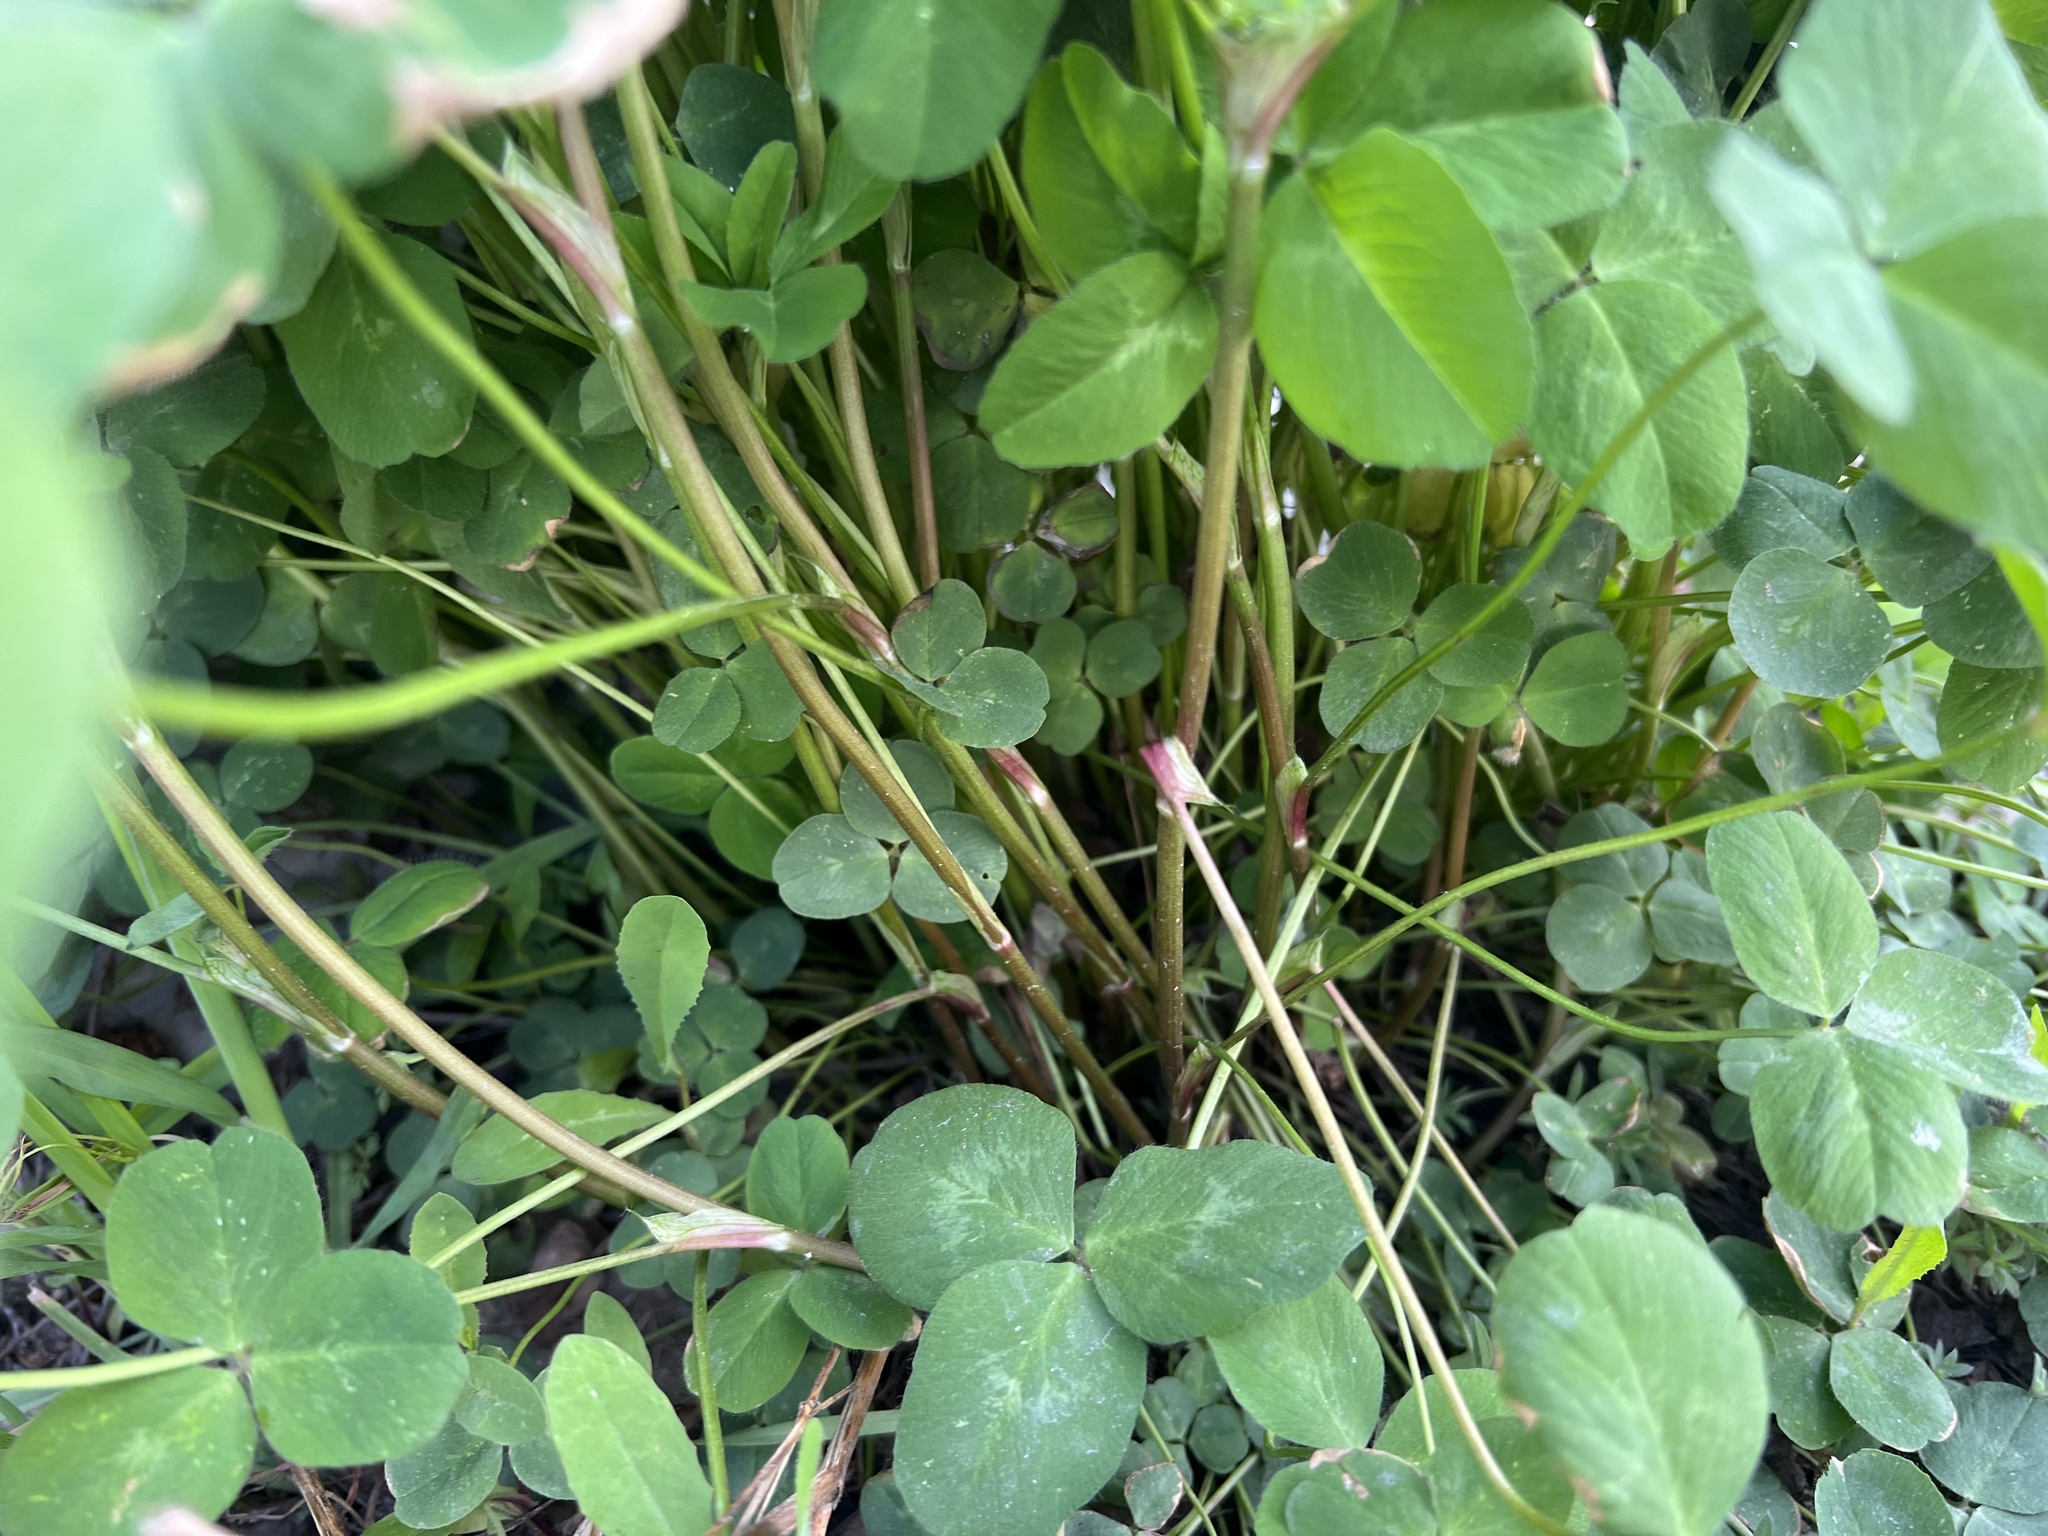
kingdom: Plantae
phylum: Tracheophyta
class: Magnoliopsida
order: Fabales
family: Fabaceae
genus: Trifolium
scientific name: Trifolium pratense
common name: Red clover
